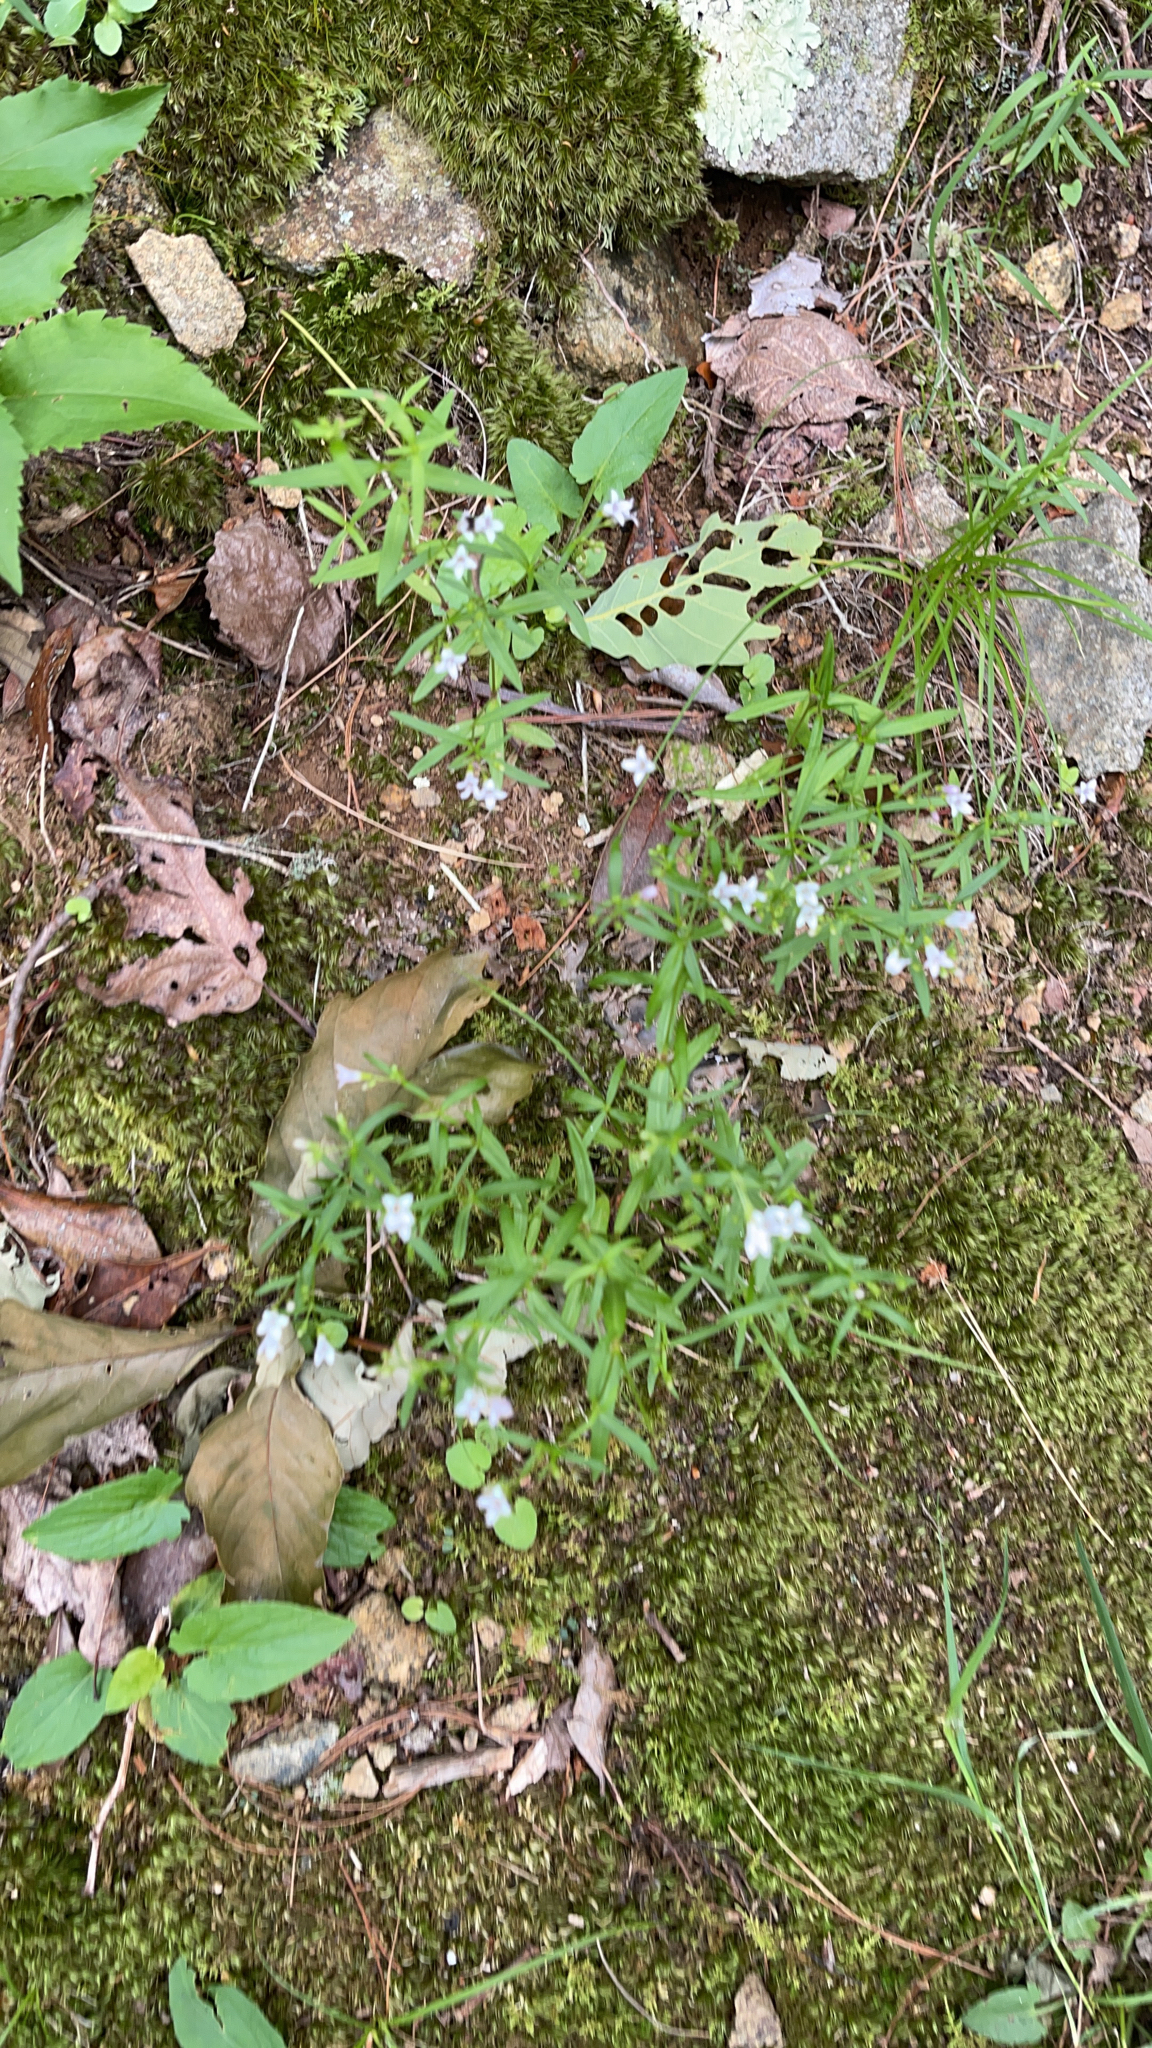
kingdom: Plantae
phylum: Tracheophyta
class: Magnoliopsida
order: Gentianales
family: Rubiaceae
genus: Houstonia
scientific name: Houstonia longifolia
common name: Long-leaved bluets
